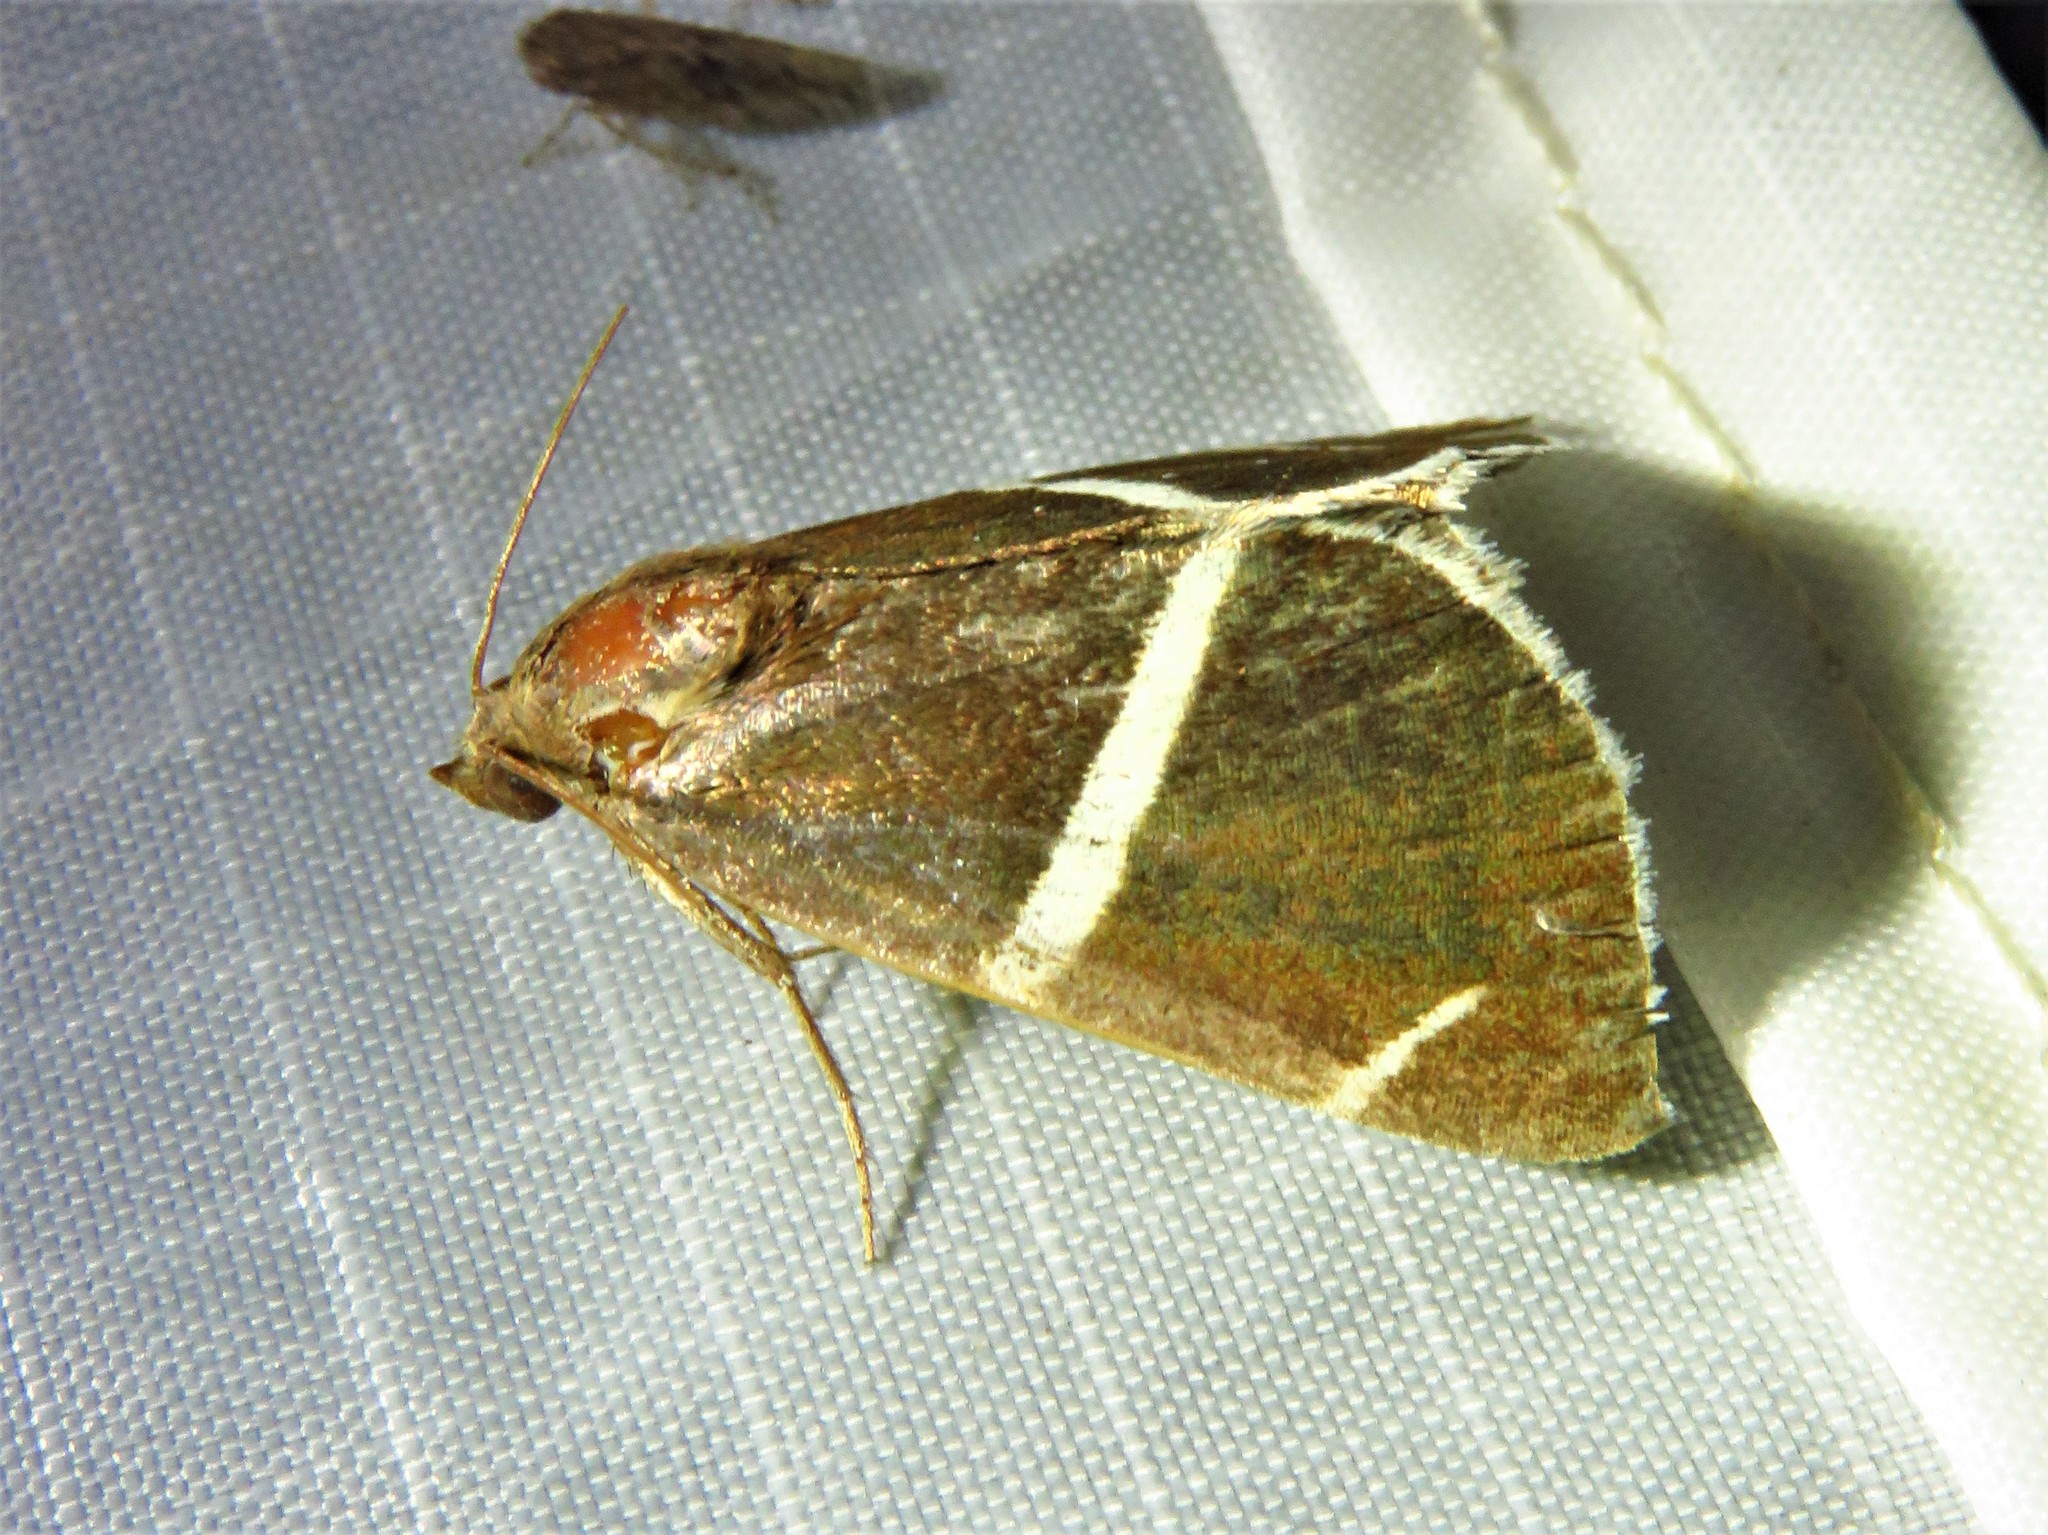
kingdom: Animalia
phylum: Arthropoda
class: Insecta
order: Lepidoptera
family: Erebidae
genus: Argyrostrotis
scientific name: Argyrostrotis anilis
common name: Short-lined chocolate
